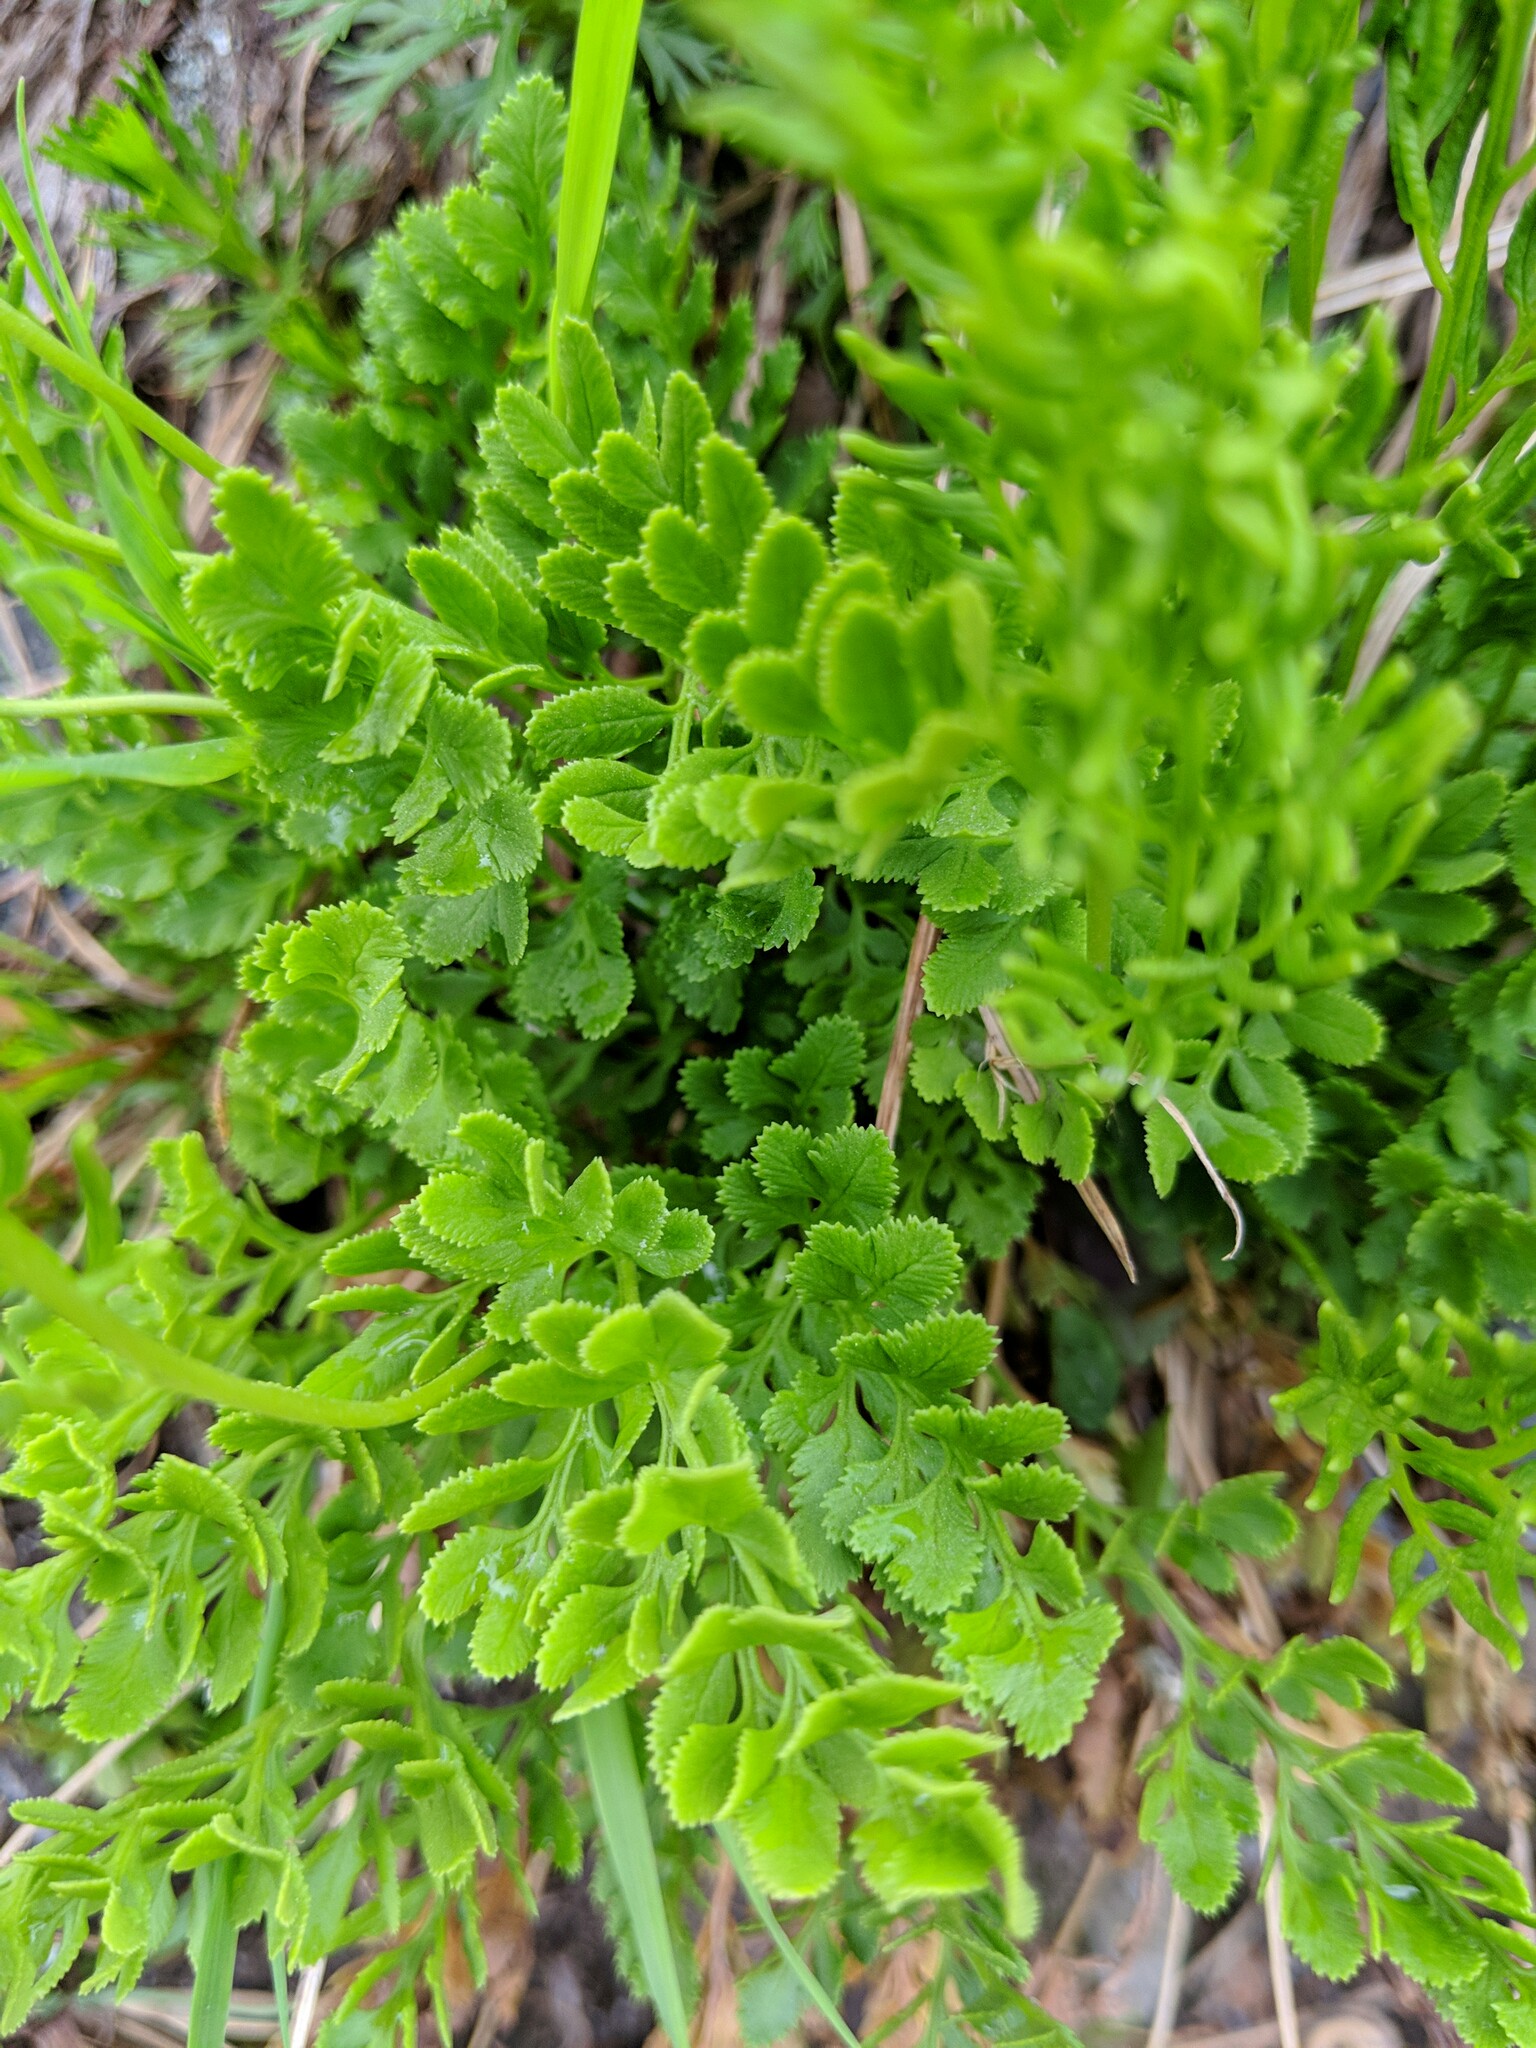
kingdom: Plantae
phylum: Tracheophyta
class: Polypodiopsida
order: Polypodiales
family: Pteridaceae
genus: Cryptogramma
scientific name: Cryptogramma acrostichoides
